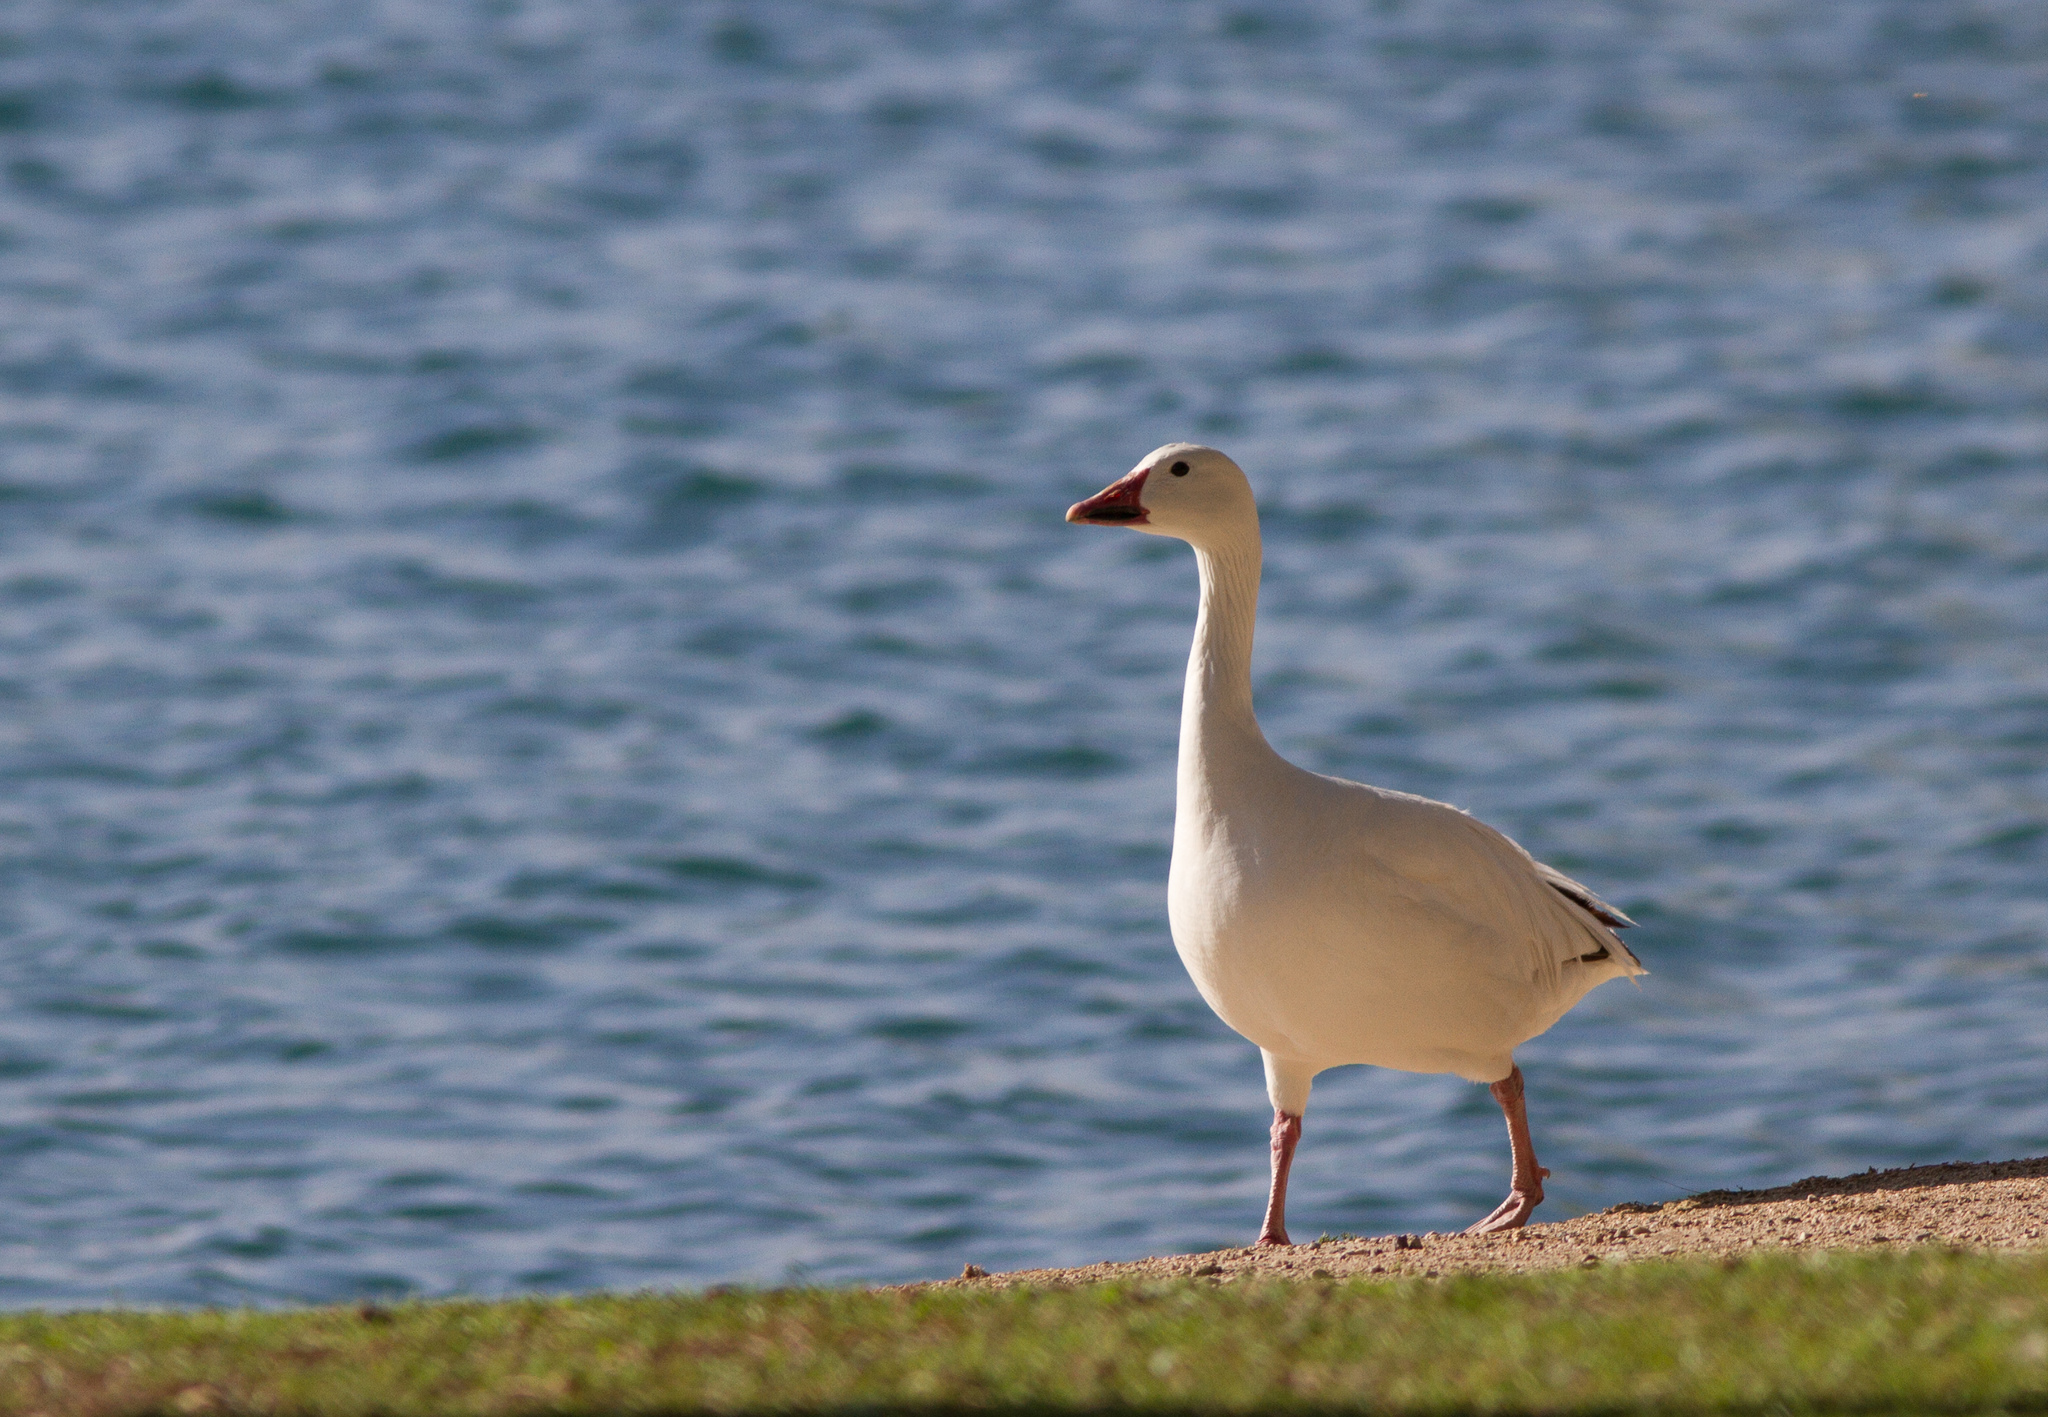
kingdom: Animalia
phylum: Chordata
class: Aves
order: Anseriformes
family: Anatidae
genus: Anser
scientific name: Anser caerulescens
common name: Snow goose
